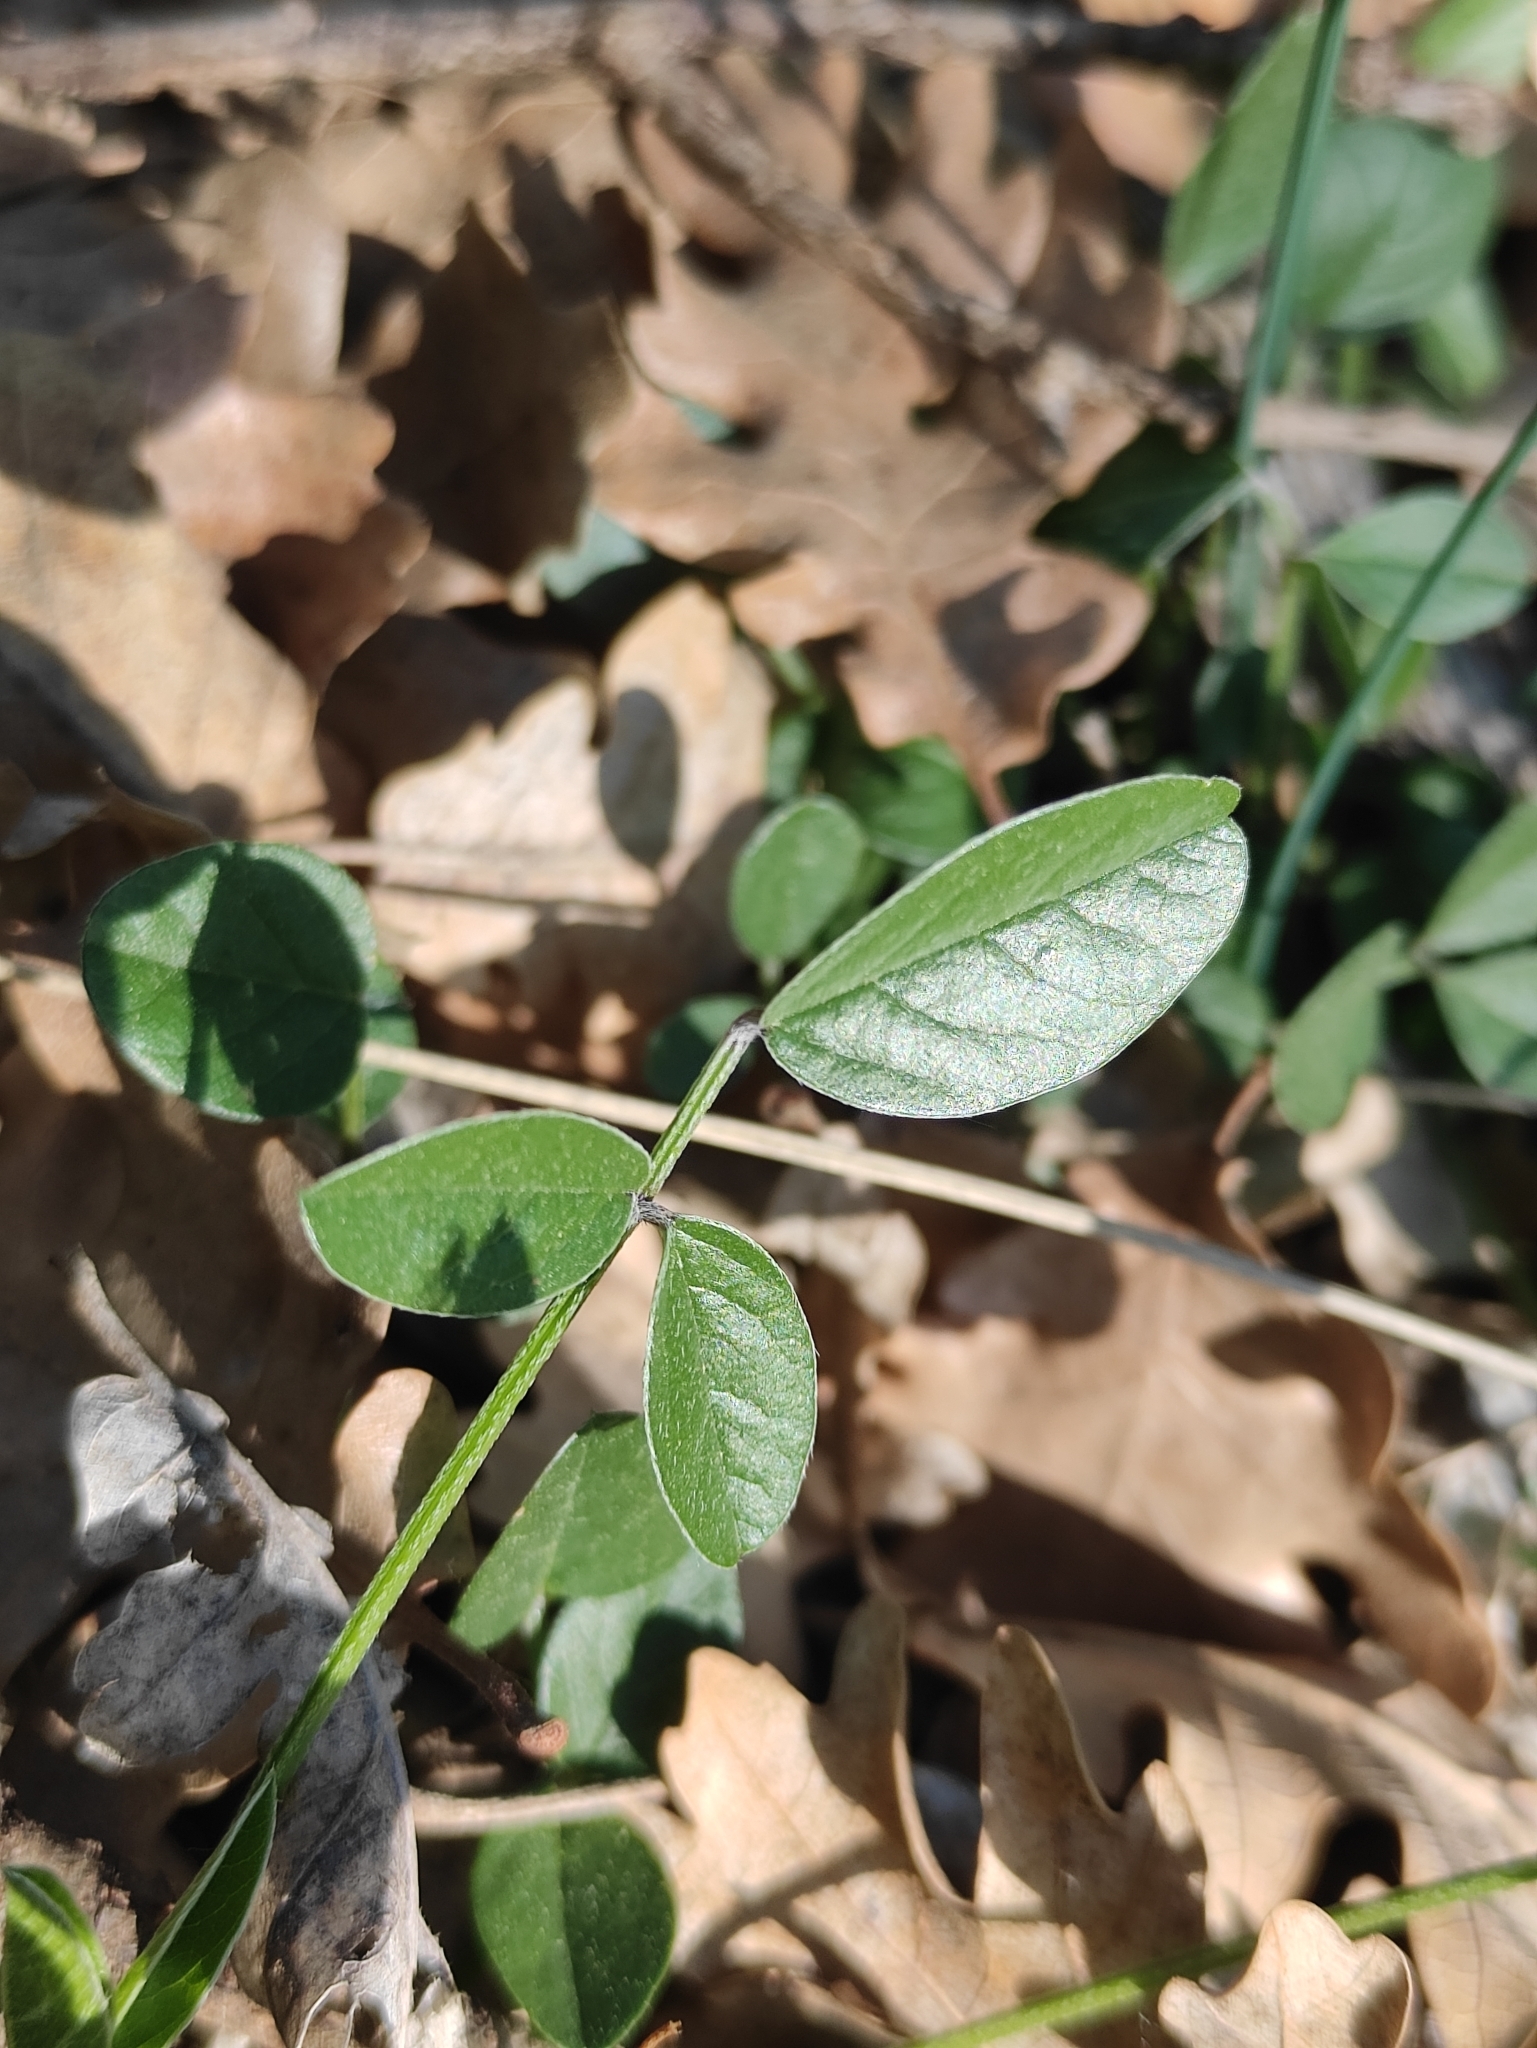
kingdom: Plantae
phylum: Tracheophyta
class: Magnoliopsida
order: Fabales
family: Fabaceae
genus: Bituminaria
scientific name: Bituminaria bituminosa
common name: Arabian pea
